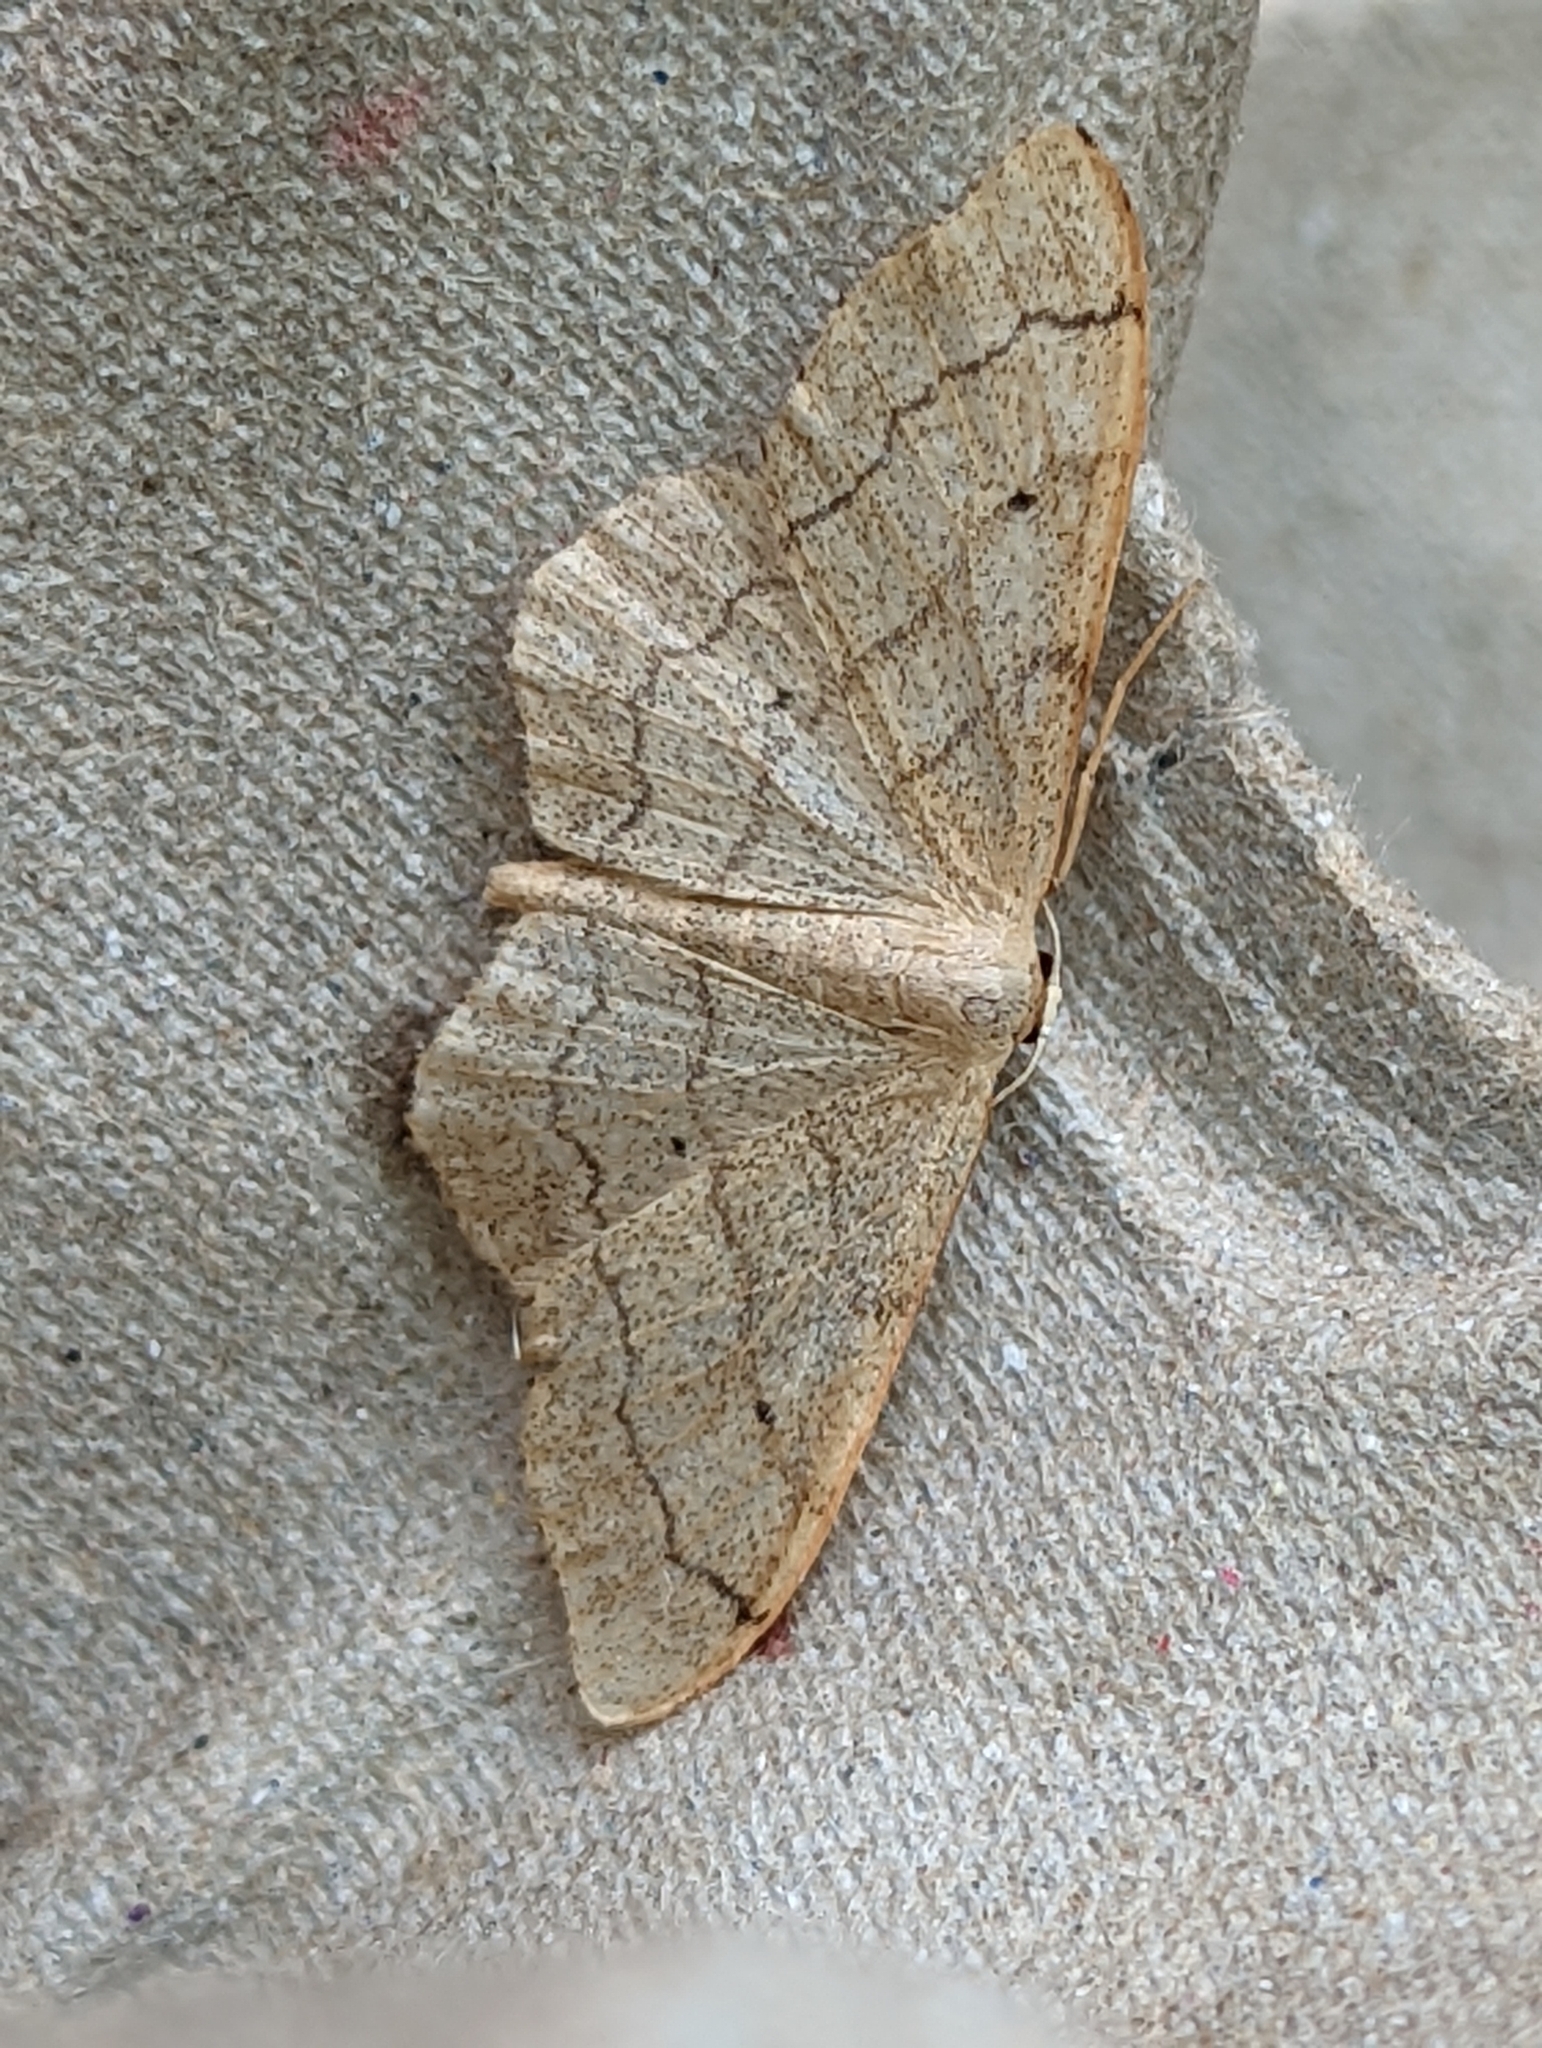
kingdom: Animalia
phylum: Arthropoda
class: Insecta
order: Lepidoptera
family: Geometridae
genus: Idaea
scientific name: Idaea aversata
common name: Riband wave
